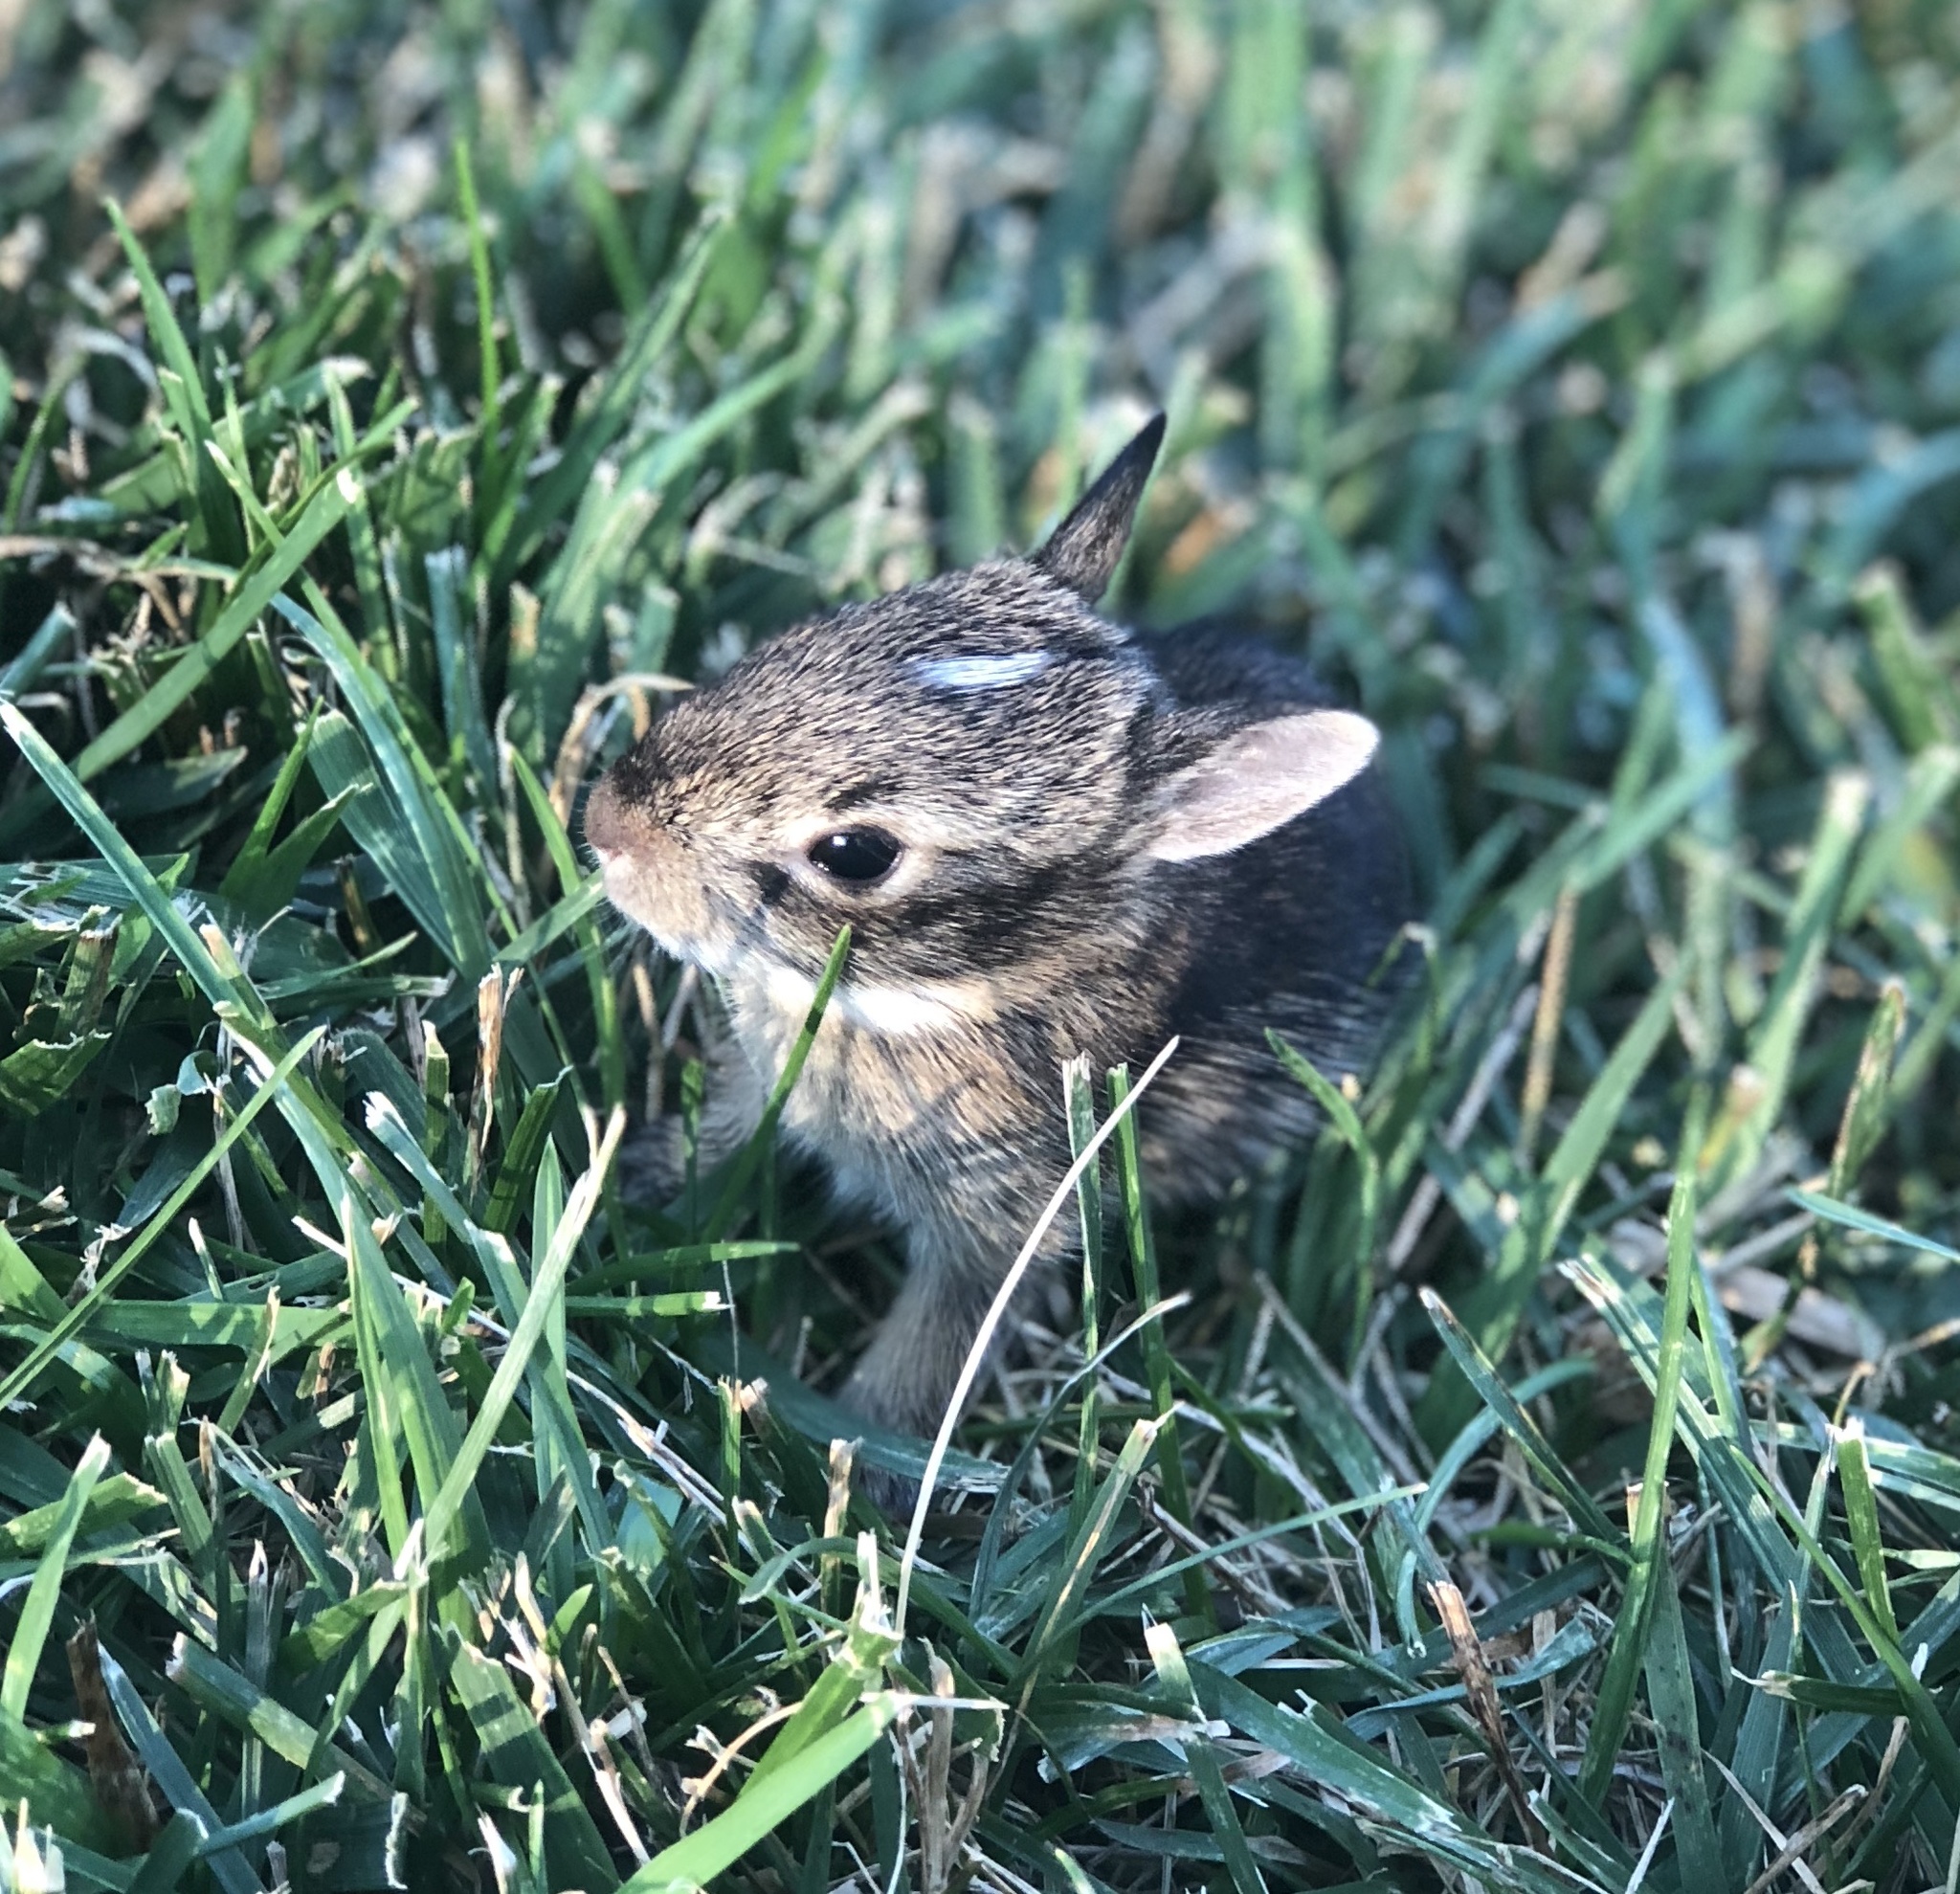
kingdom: Animalia
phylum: Chordata
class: Mammalia
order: Lagomorpha
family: Leporidae
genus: Sylvilagus
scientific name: Sylvilagus floridanus
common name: Eastern cottontail
